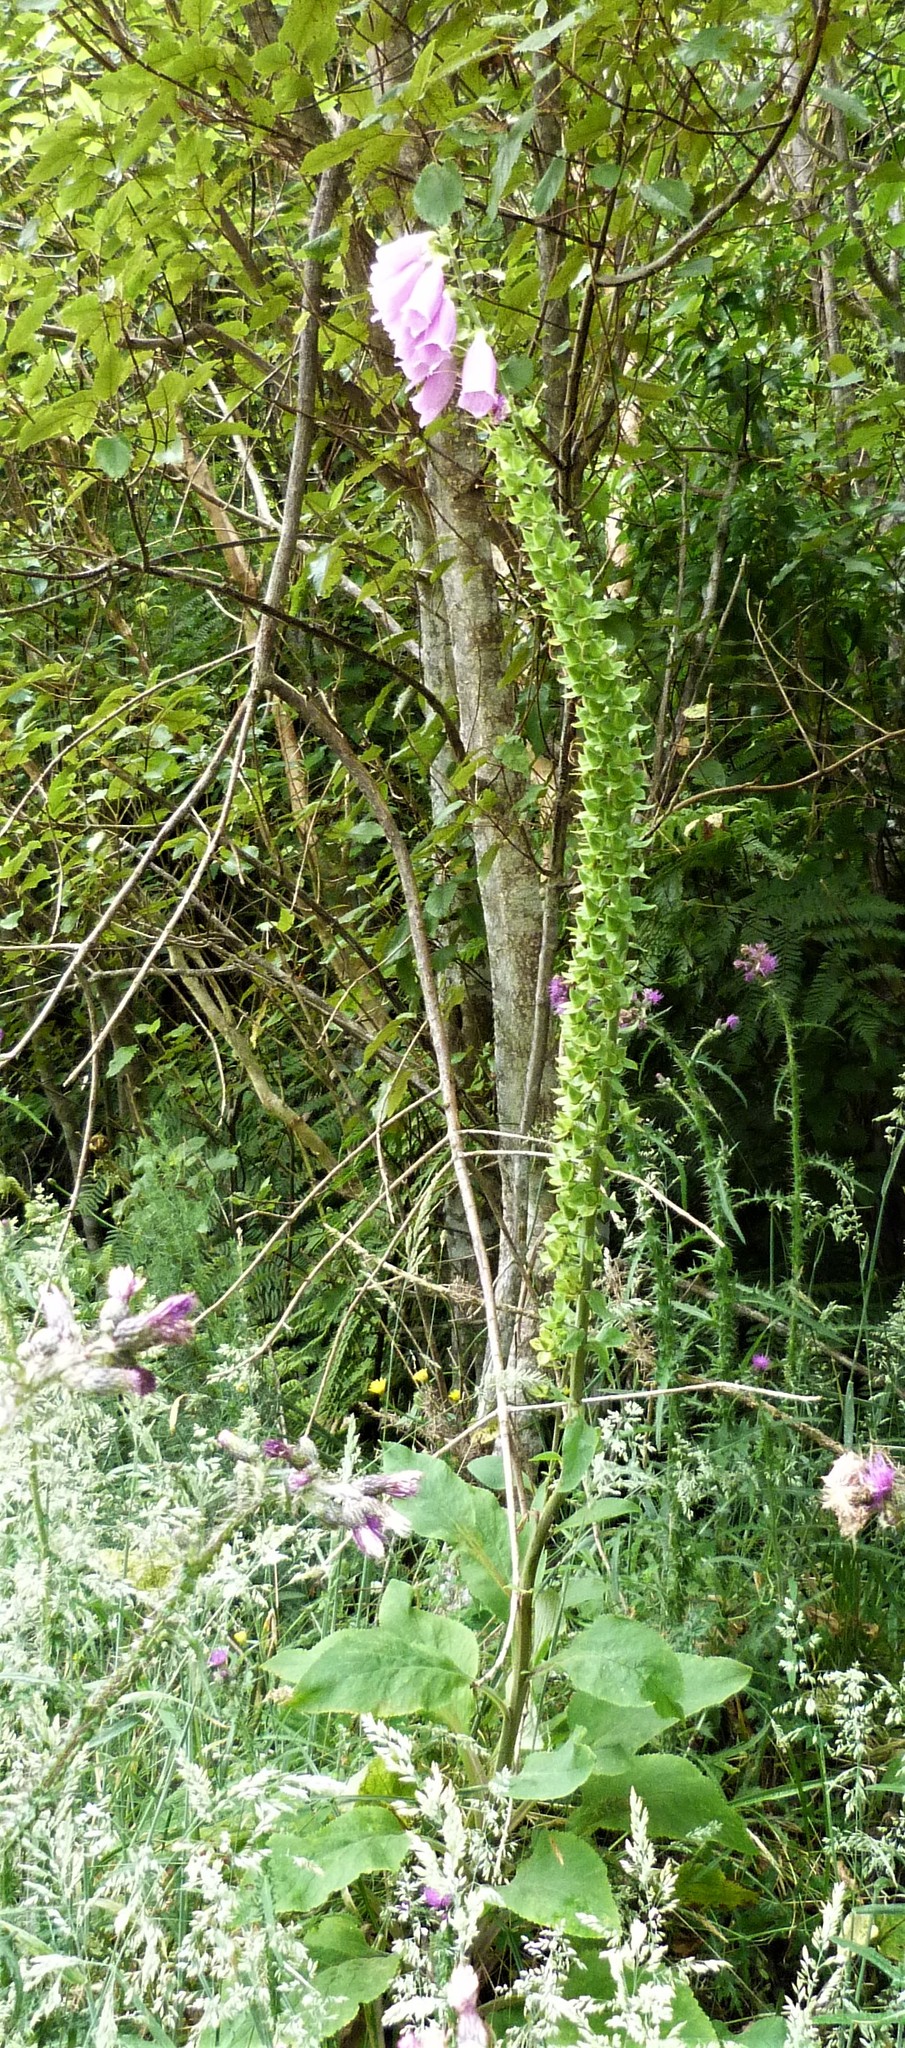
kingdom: Plantae
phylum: Tracheophyta
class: Magnoliopsida
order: Lamiales
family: Plantaginaceae
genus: Digitalis
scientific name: Digitalis purpurea
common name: Foxglove
